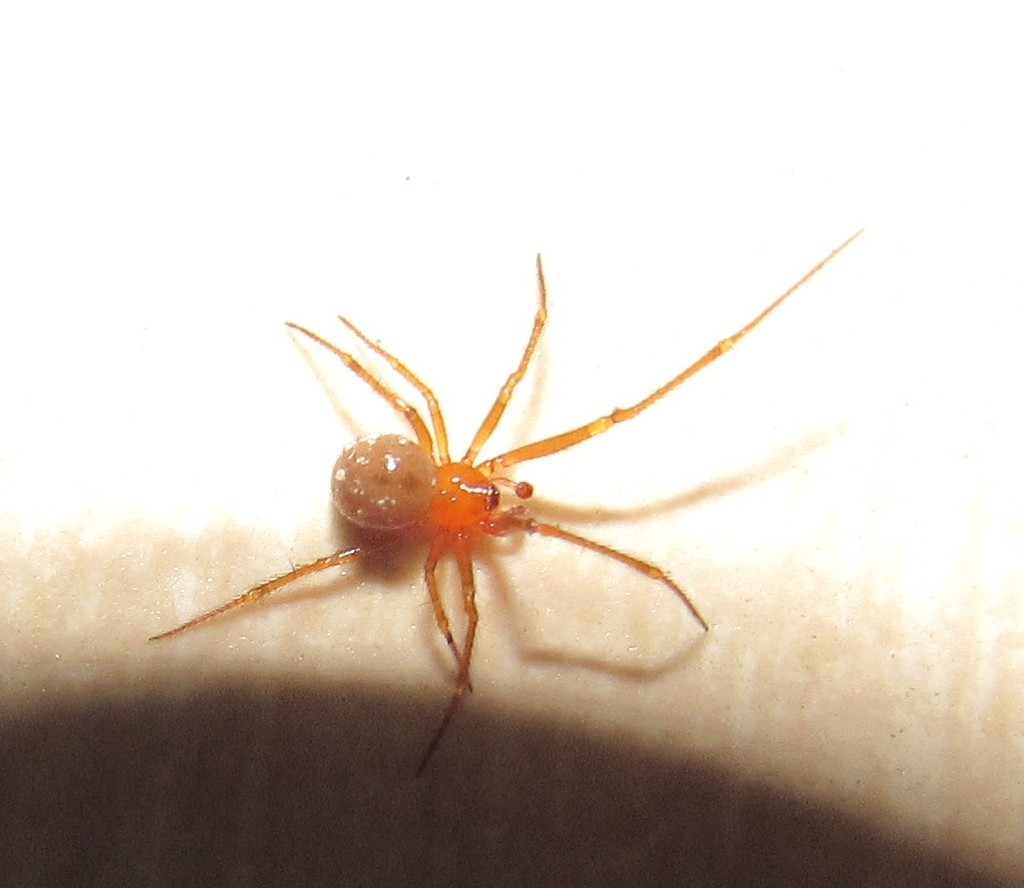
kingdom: Animalia
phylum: Arthropoda
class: Arachnida
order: Araneae
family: Theridiidae
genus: Nesticodes
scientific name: Nesticodes rufipes
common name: Cobweb spiders
